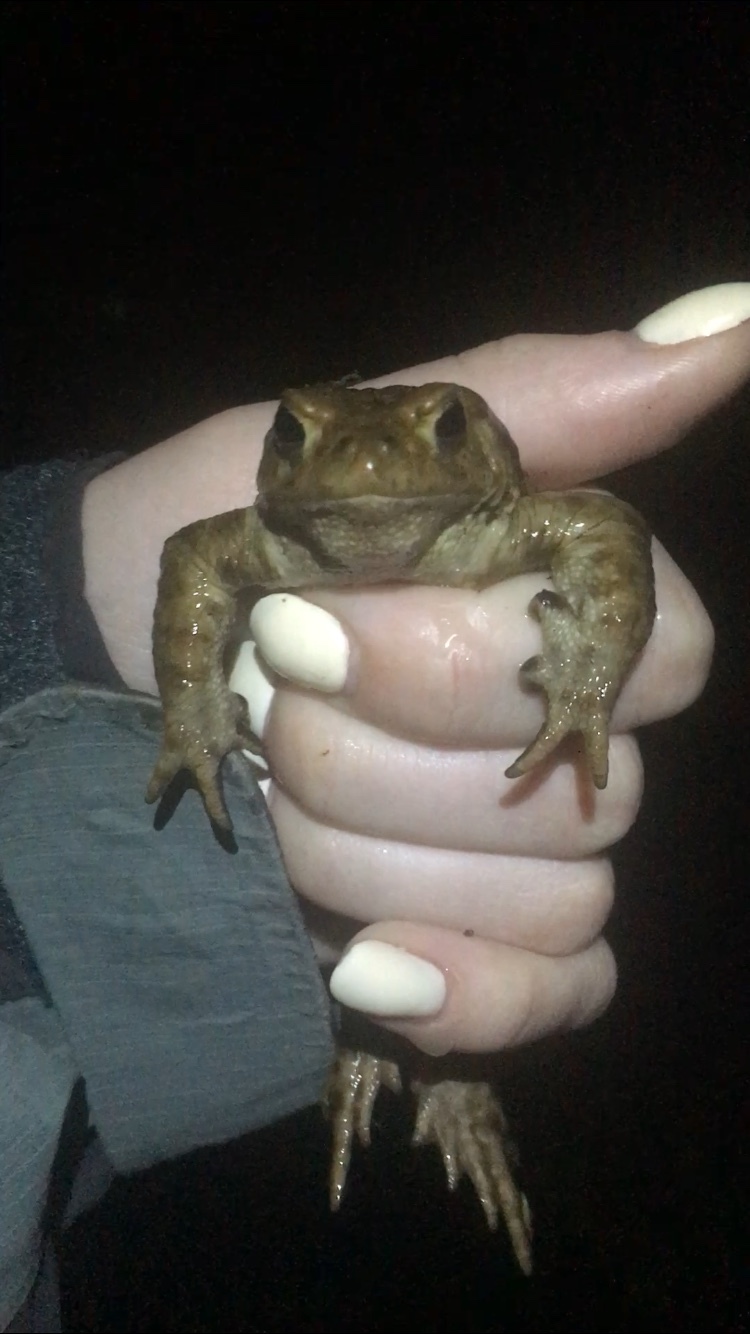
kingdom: Animalia
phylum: Chordata
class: Amphibia
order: Anura
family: Bufonidae
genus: Bufo
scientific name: Bufo bufo
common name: Common toad
